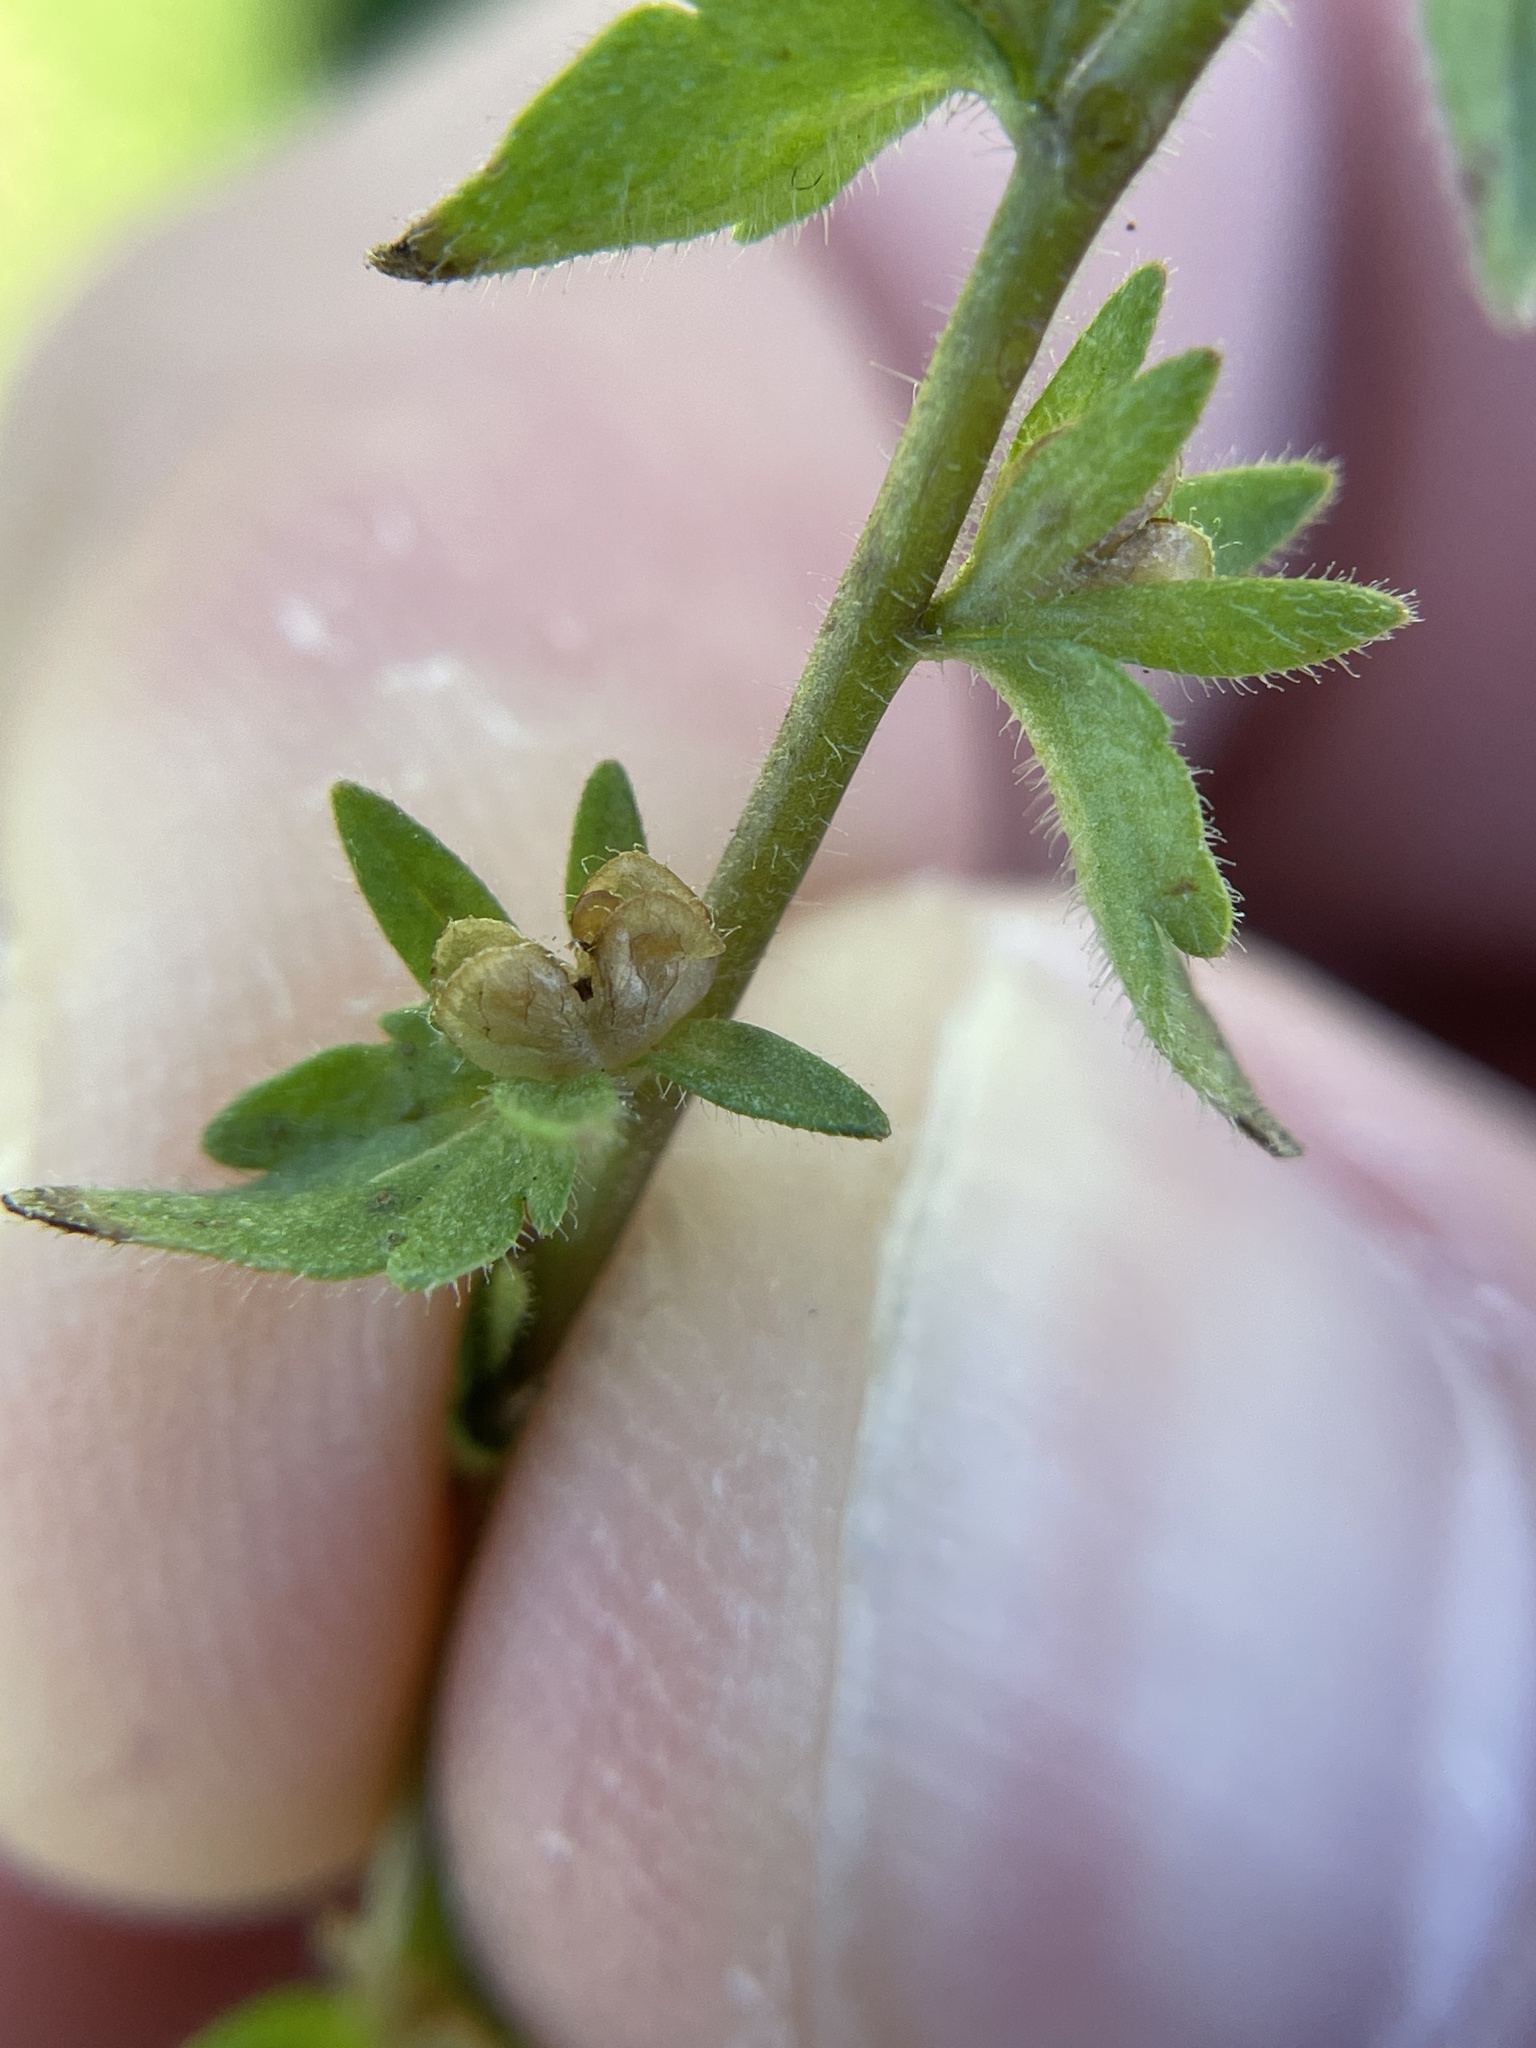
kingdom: Plantae
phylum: Tracheophyta
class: Magnoliopsida
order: Lamiales
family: Plantaginaceae
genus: Veronica
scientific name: Veronica arvensis
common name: Corn speedwell
